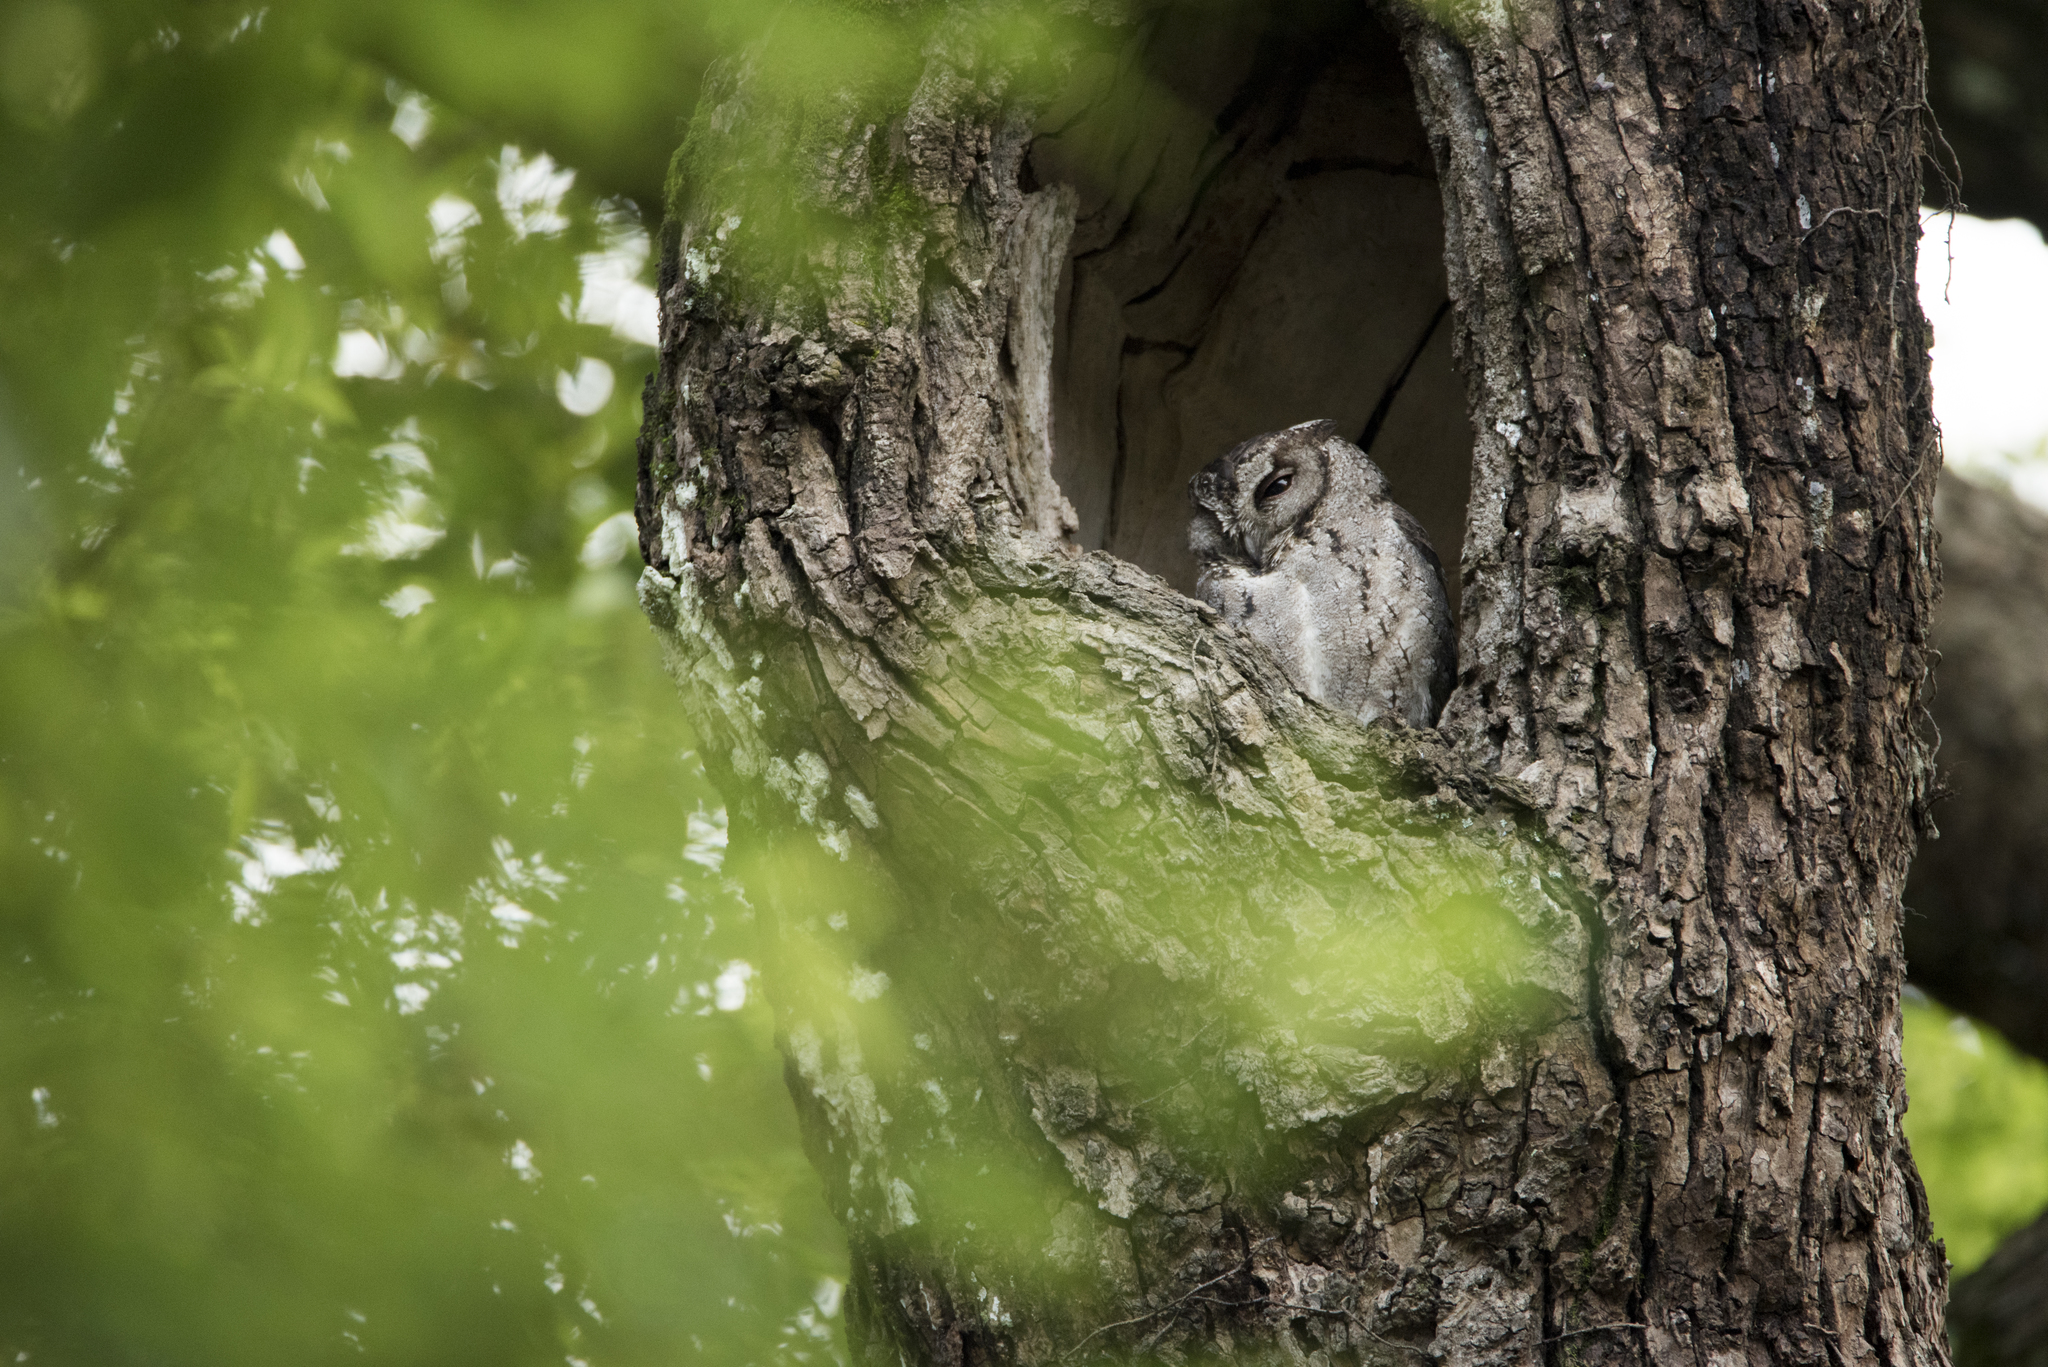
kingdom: Animalia
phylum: Chordata
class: Aves
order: Strigiformes
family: Strigidae
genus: Otus
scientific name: Otus lettia
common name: Collared scops owl
